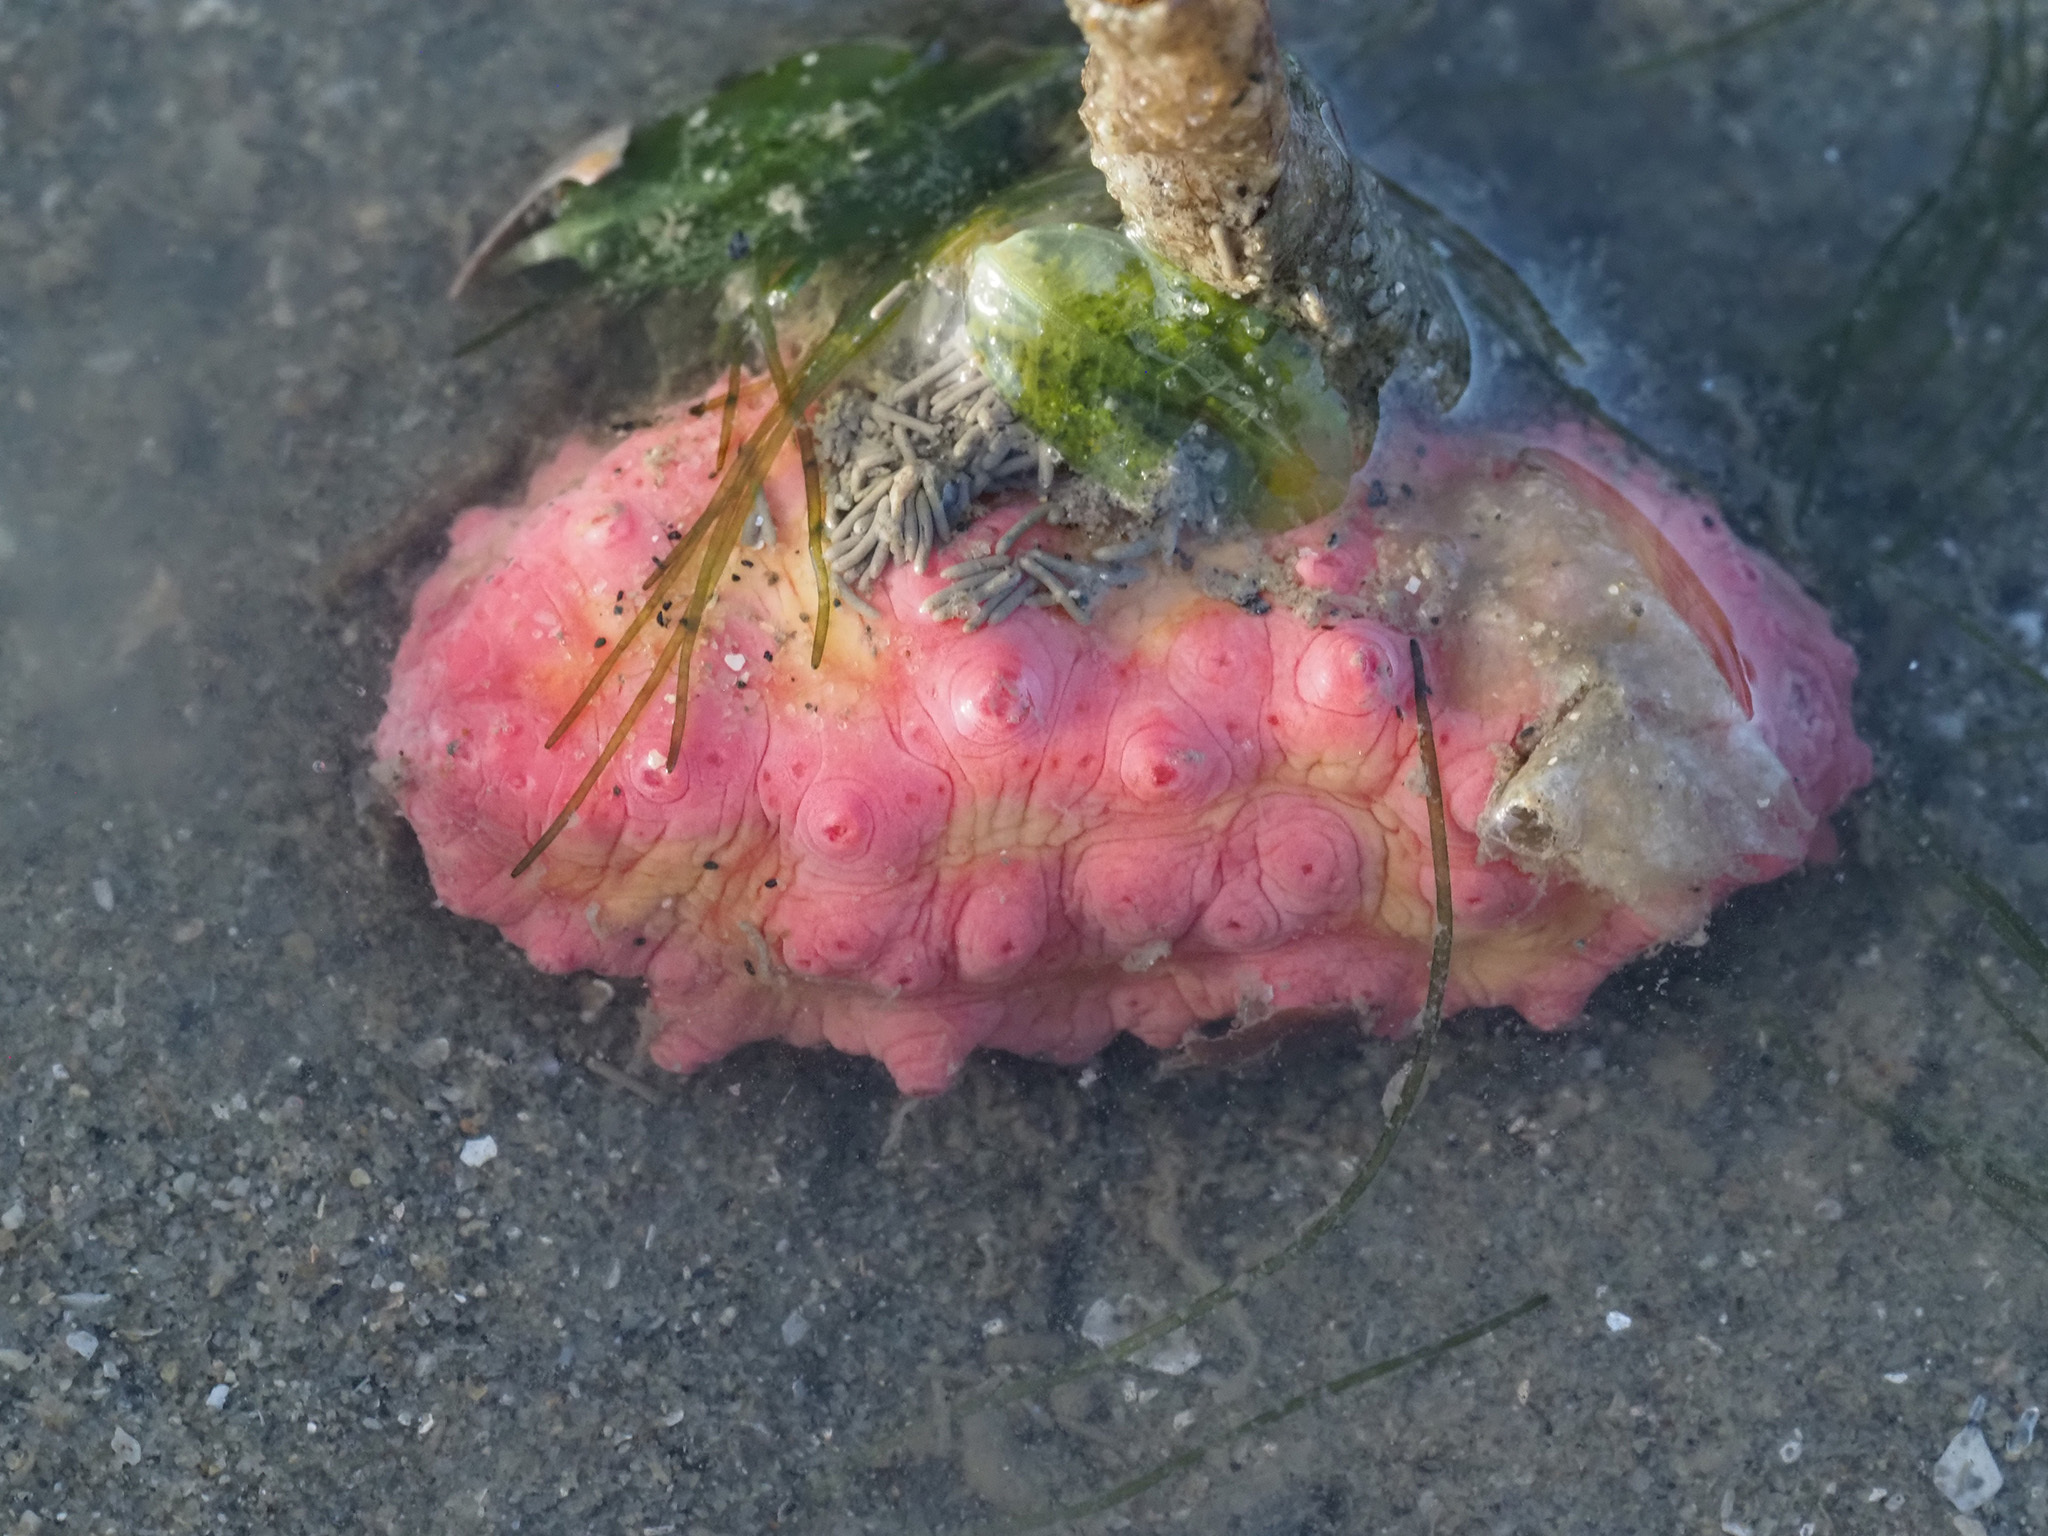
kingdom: Animalia
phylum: Echinodermata
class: Holothuroidea
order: Dendrochirotida
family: Cucumariidae
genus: Cercodemas
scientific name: Cercodemas anceps
